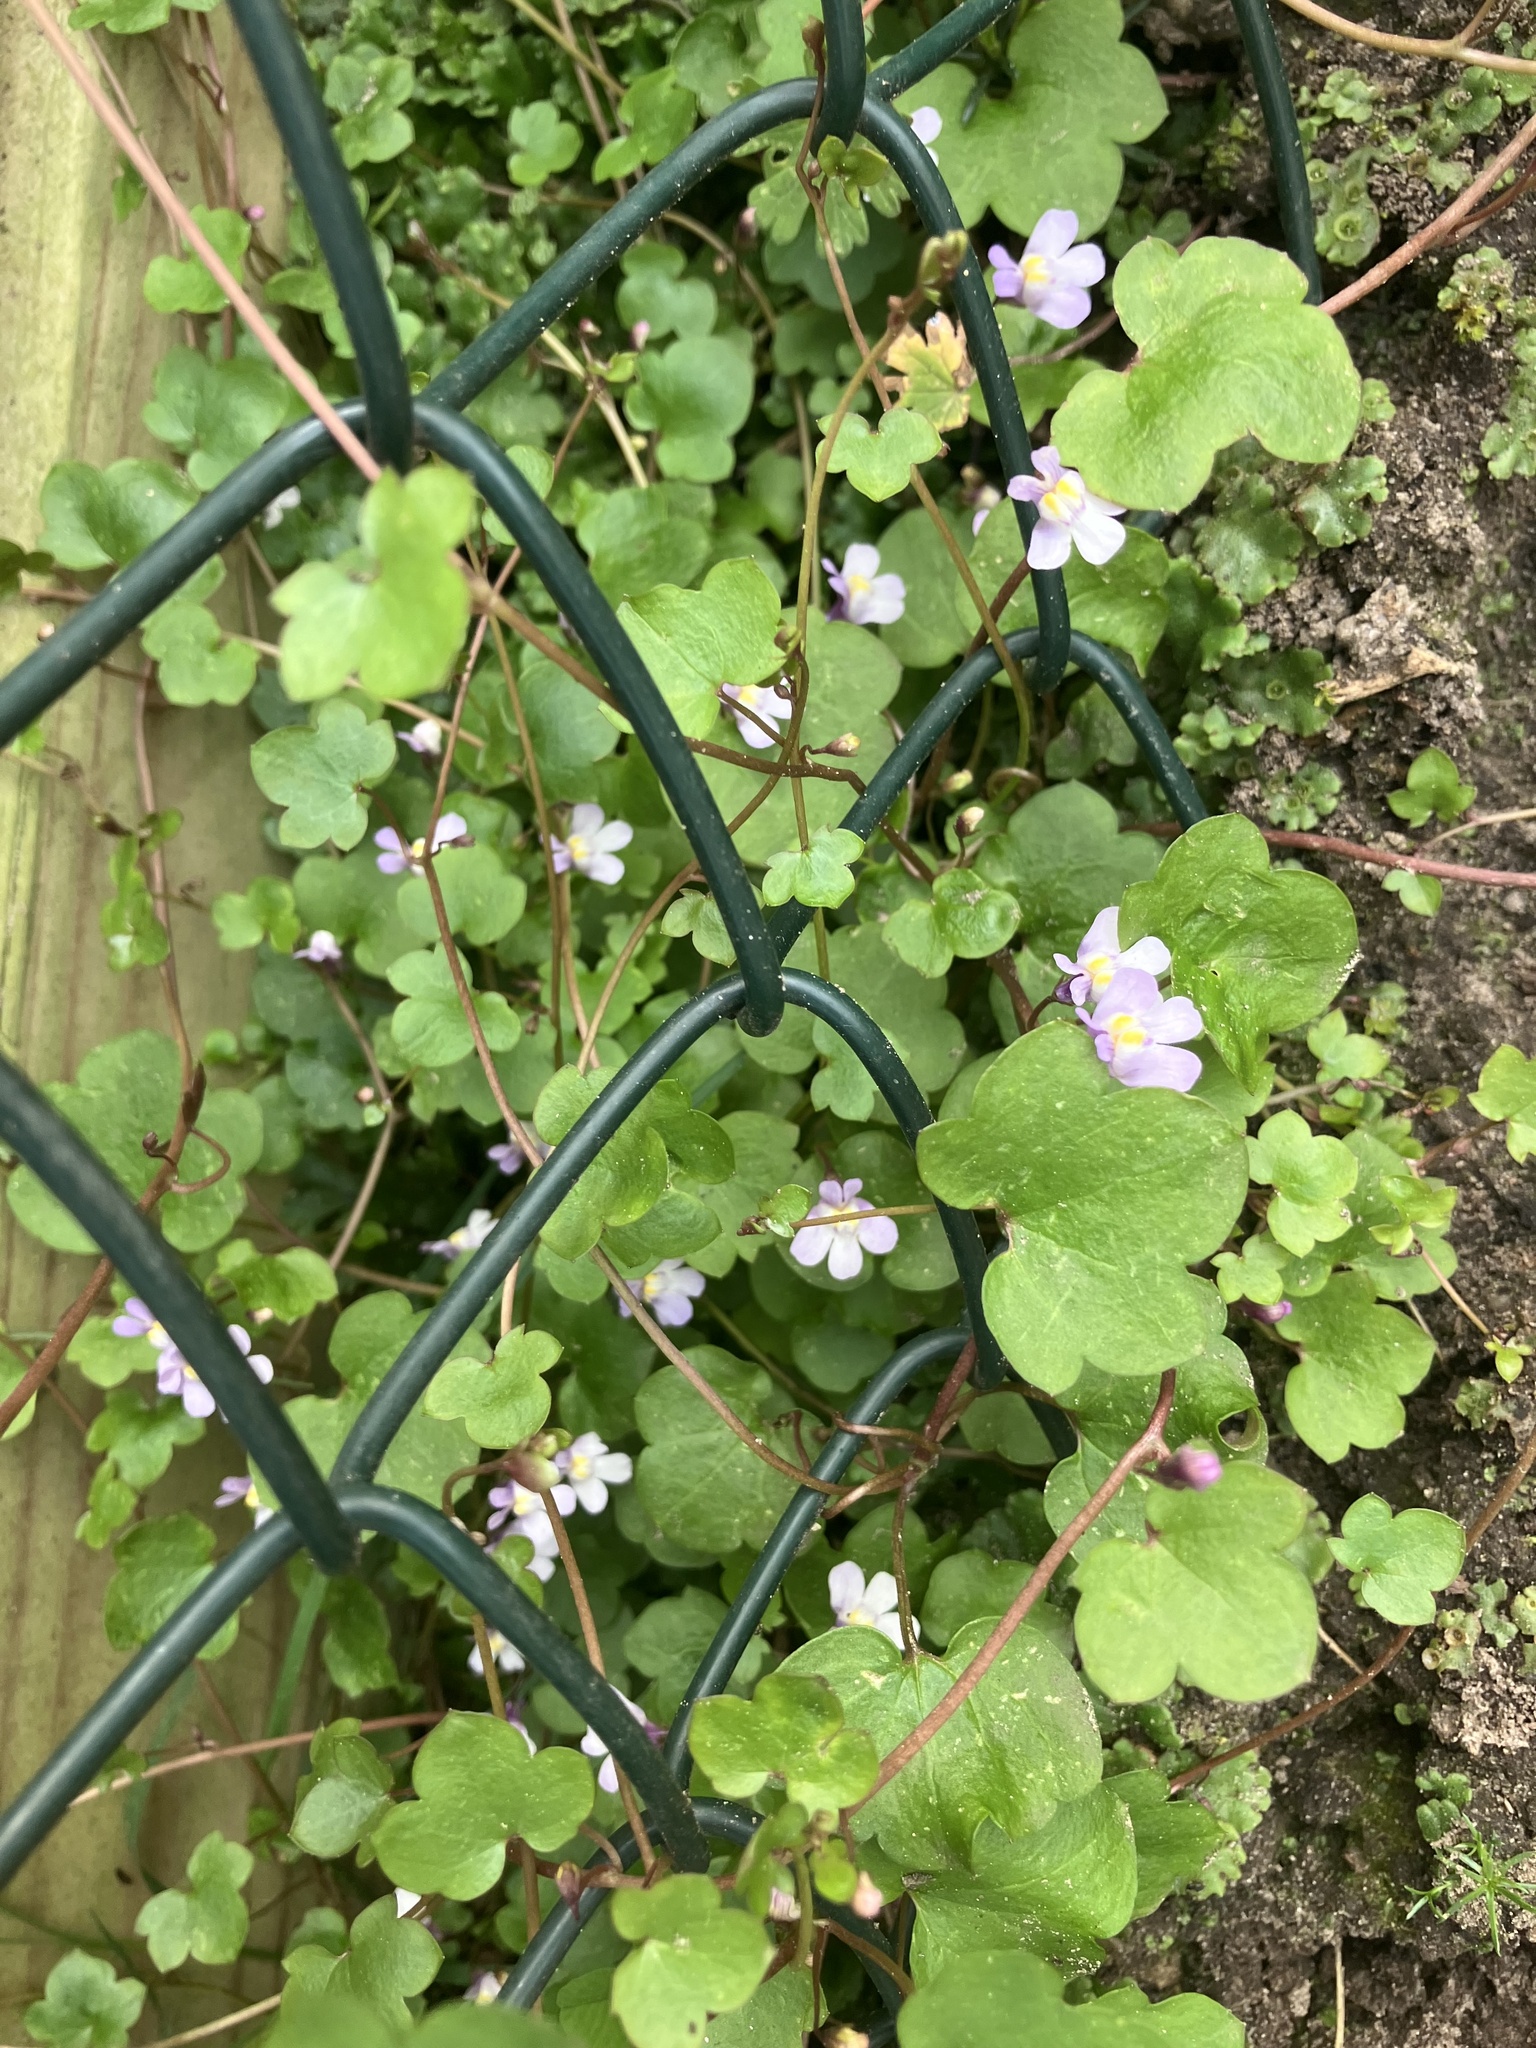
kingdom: Plantae
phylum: Tracheophyta
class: Magnoliopsida
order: Lamiales
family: Plantaginaceae
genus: Cymbalaria
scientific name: Cymbalaria muralis
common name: Ivy-leaved toadflax
